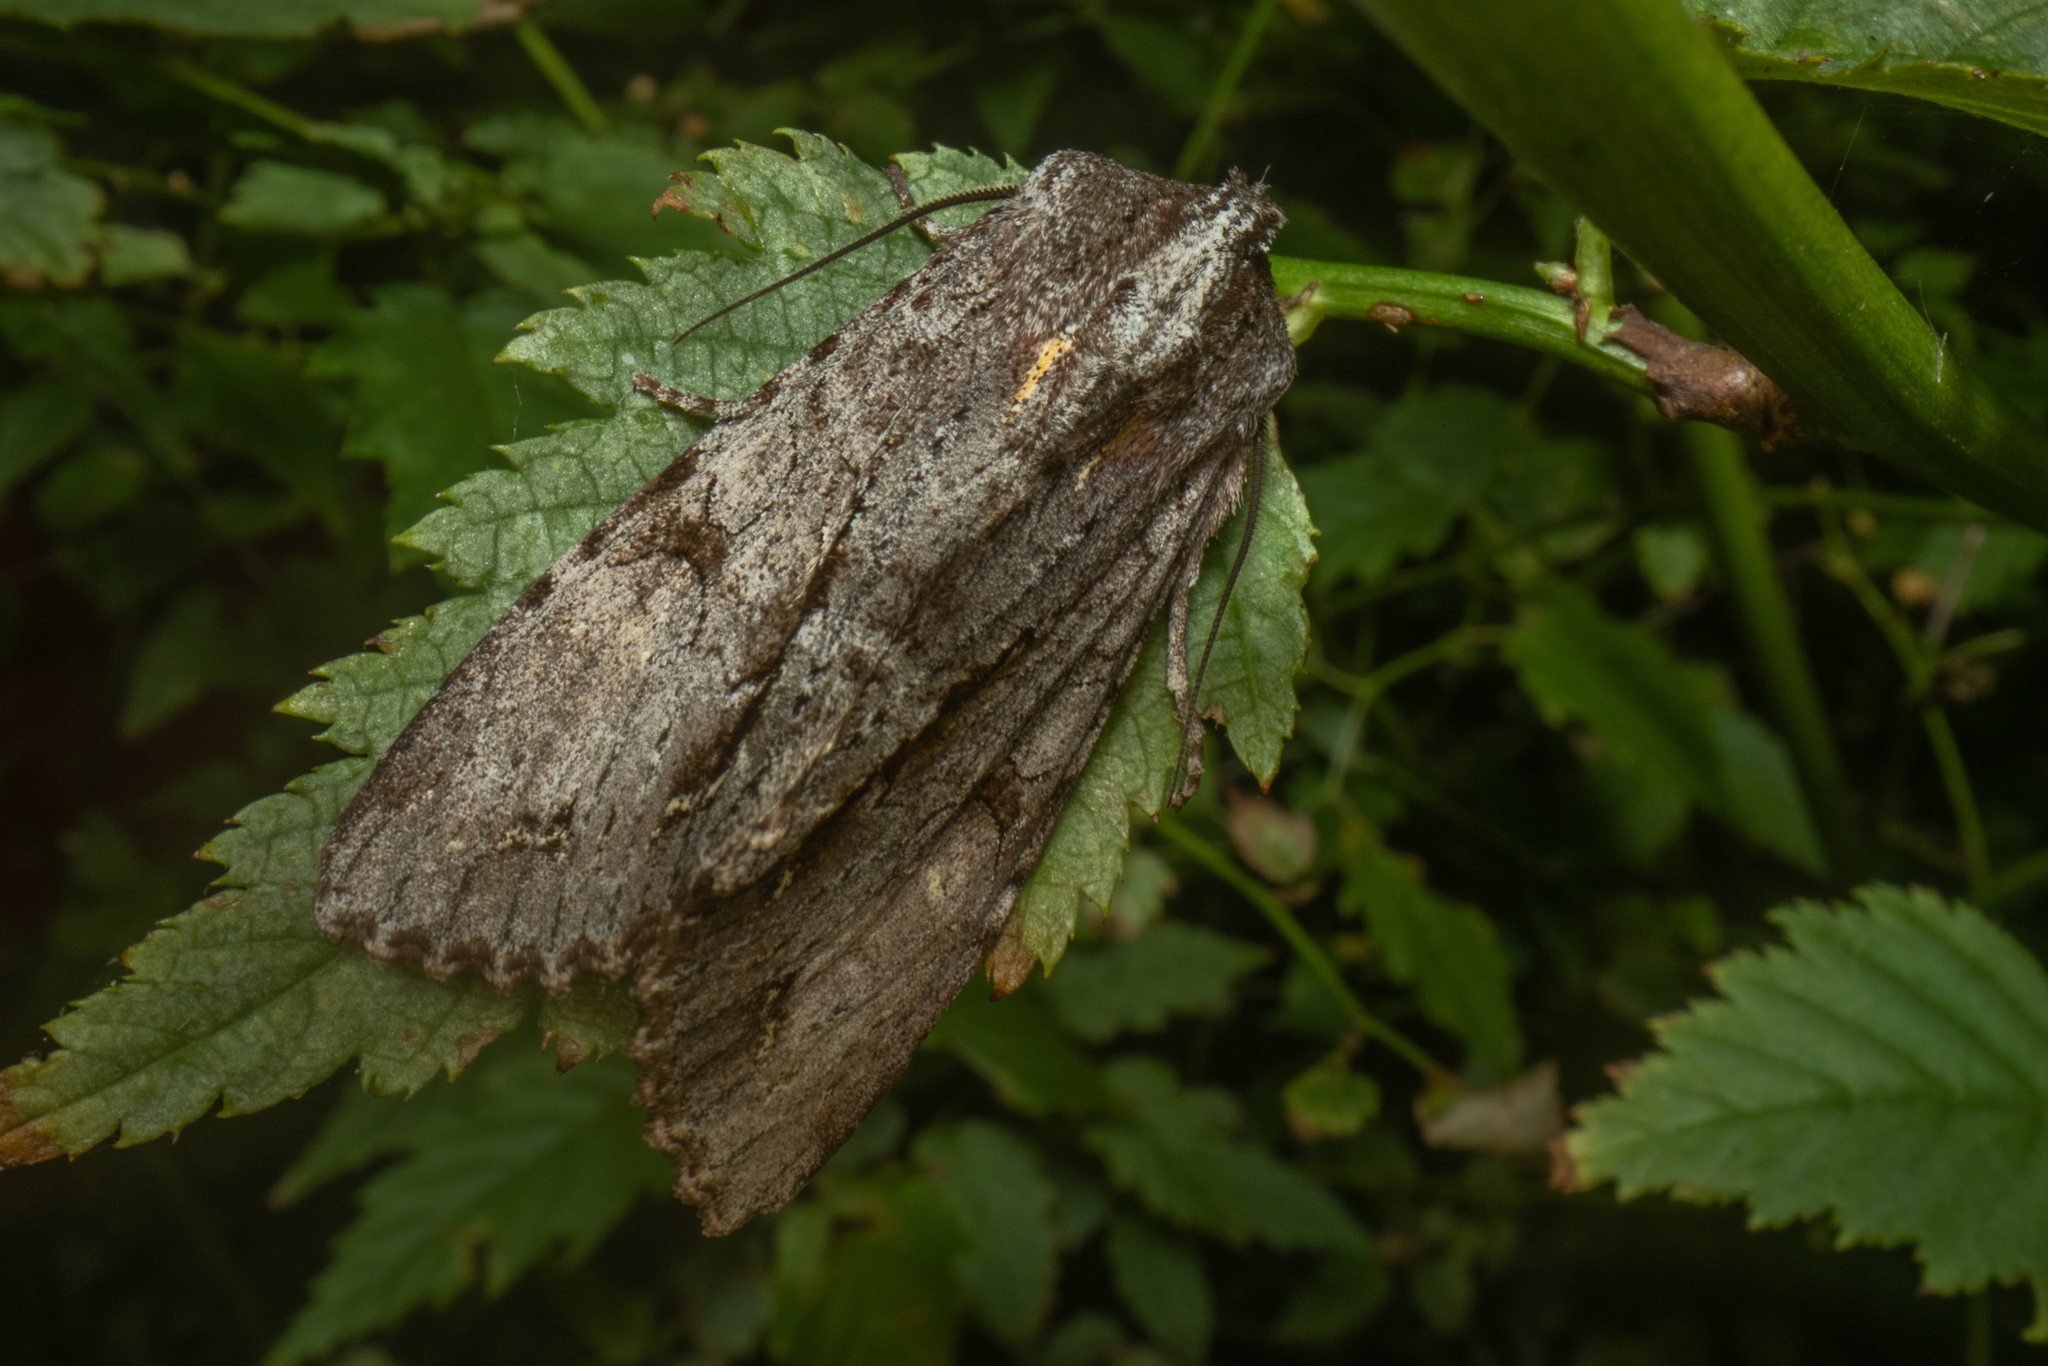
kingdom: Animalia
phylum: Arthropoda
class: Insecta
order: Lepidoptera
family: Noctuidae
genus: Ichneutica
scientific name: Ichneutica
